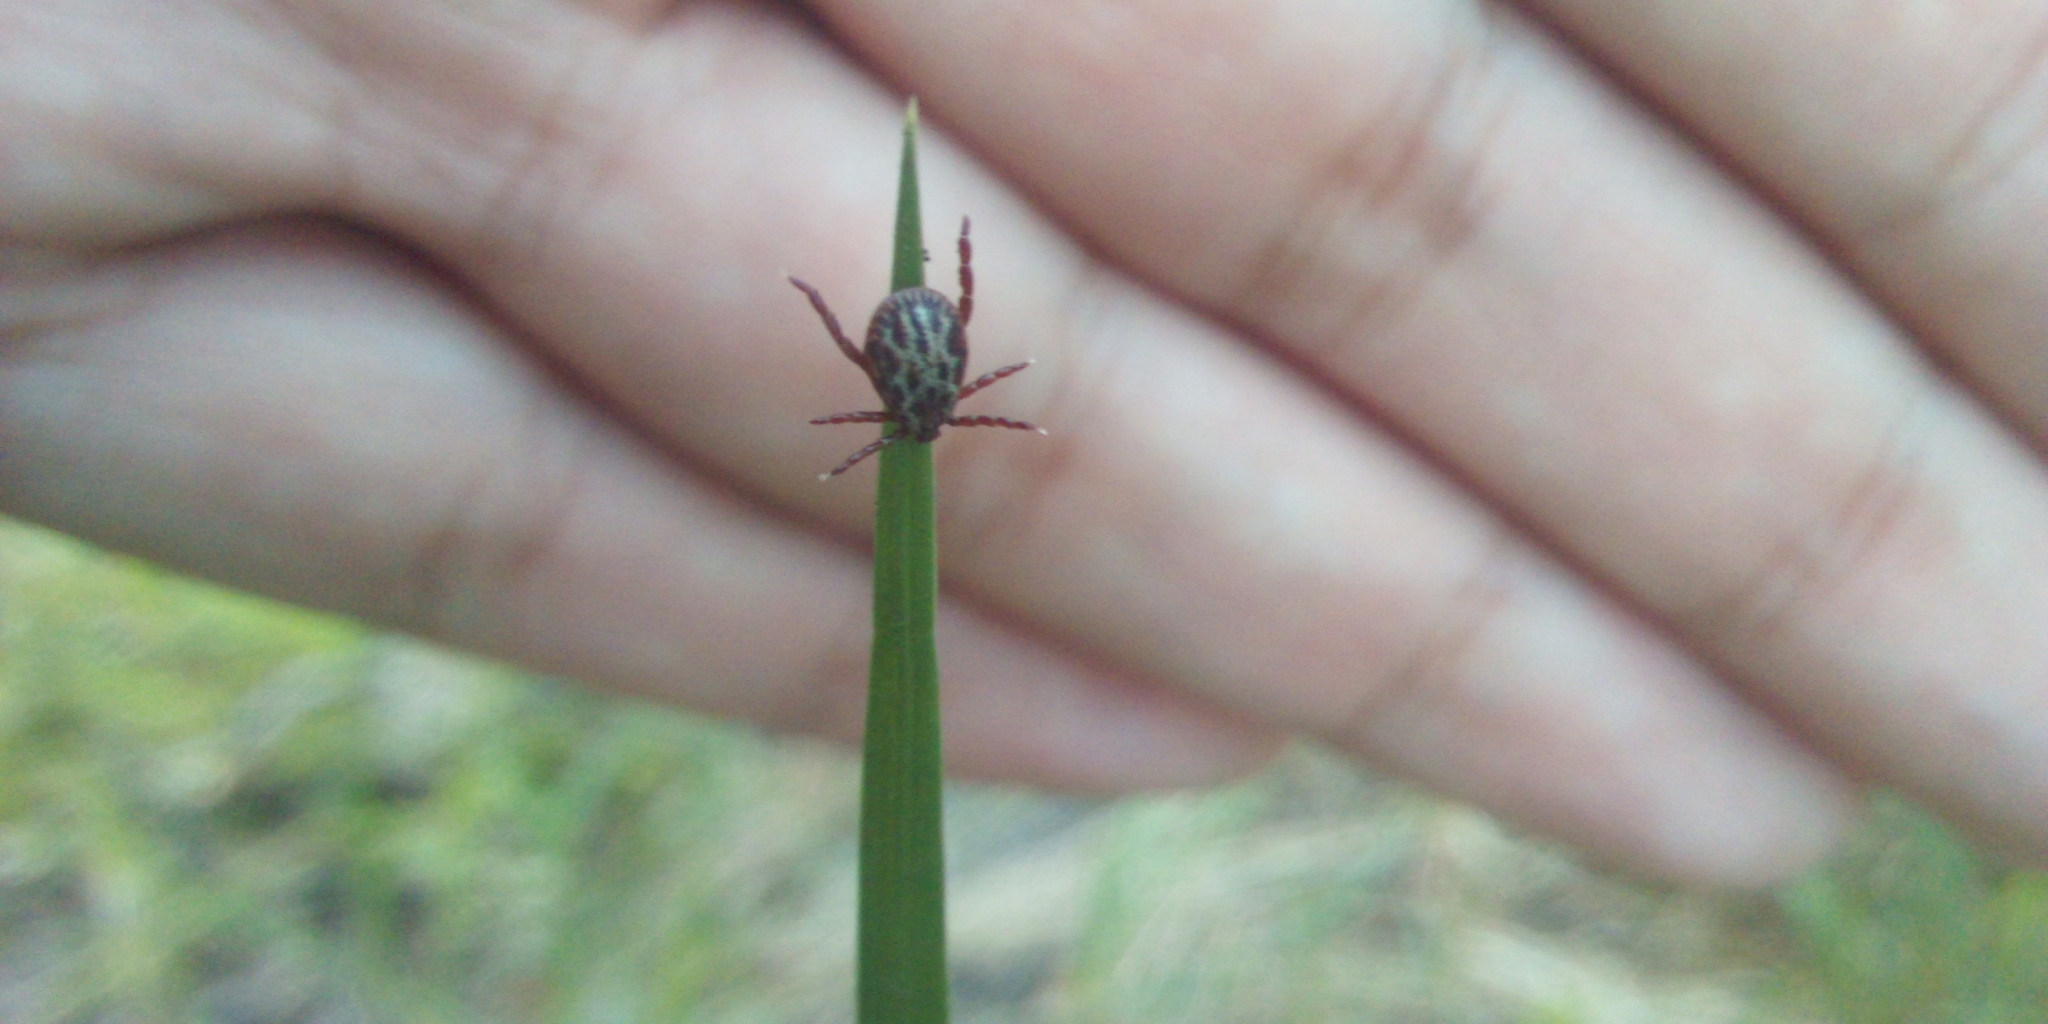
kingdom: Animalia
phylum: Arthropoda
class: Arachnida
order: Ixodida
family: Ixodidae
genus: Dermacentor
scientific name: Dermacentor reticulatus
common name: Ornate cow tick
